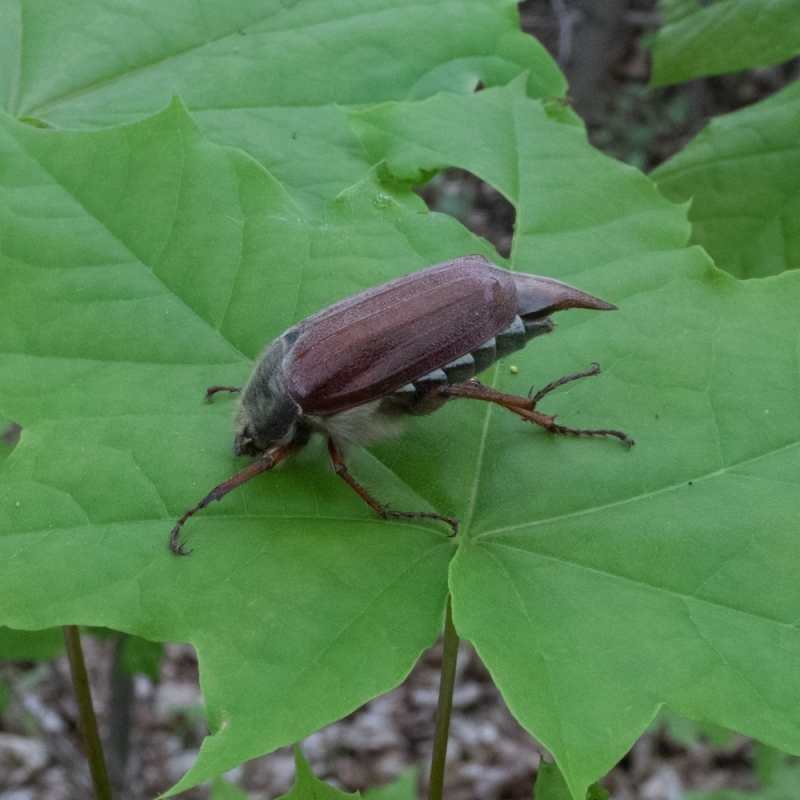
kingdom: Animalia
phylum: Arthropoda
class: Insecta
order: Coleoptera
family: Scarabaeidae
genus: Melolontha
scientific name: Melolontha melolontha
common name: Cockchafer maybeetle
